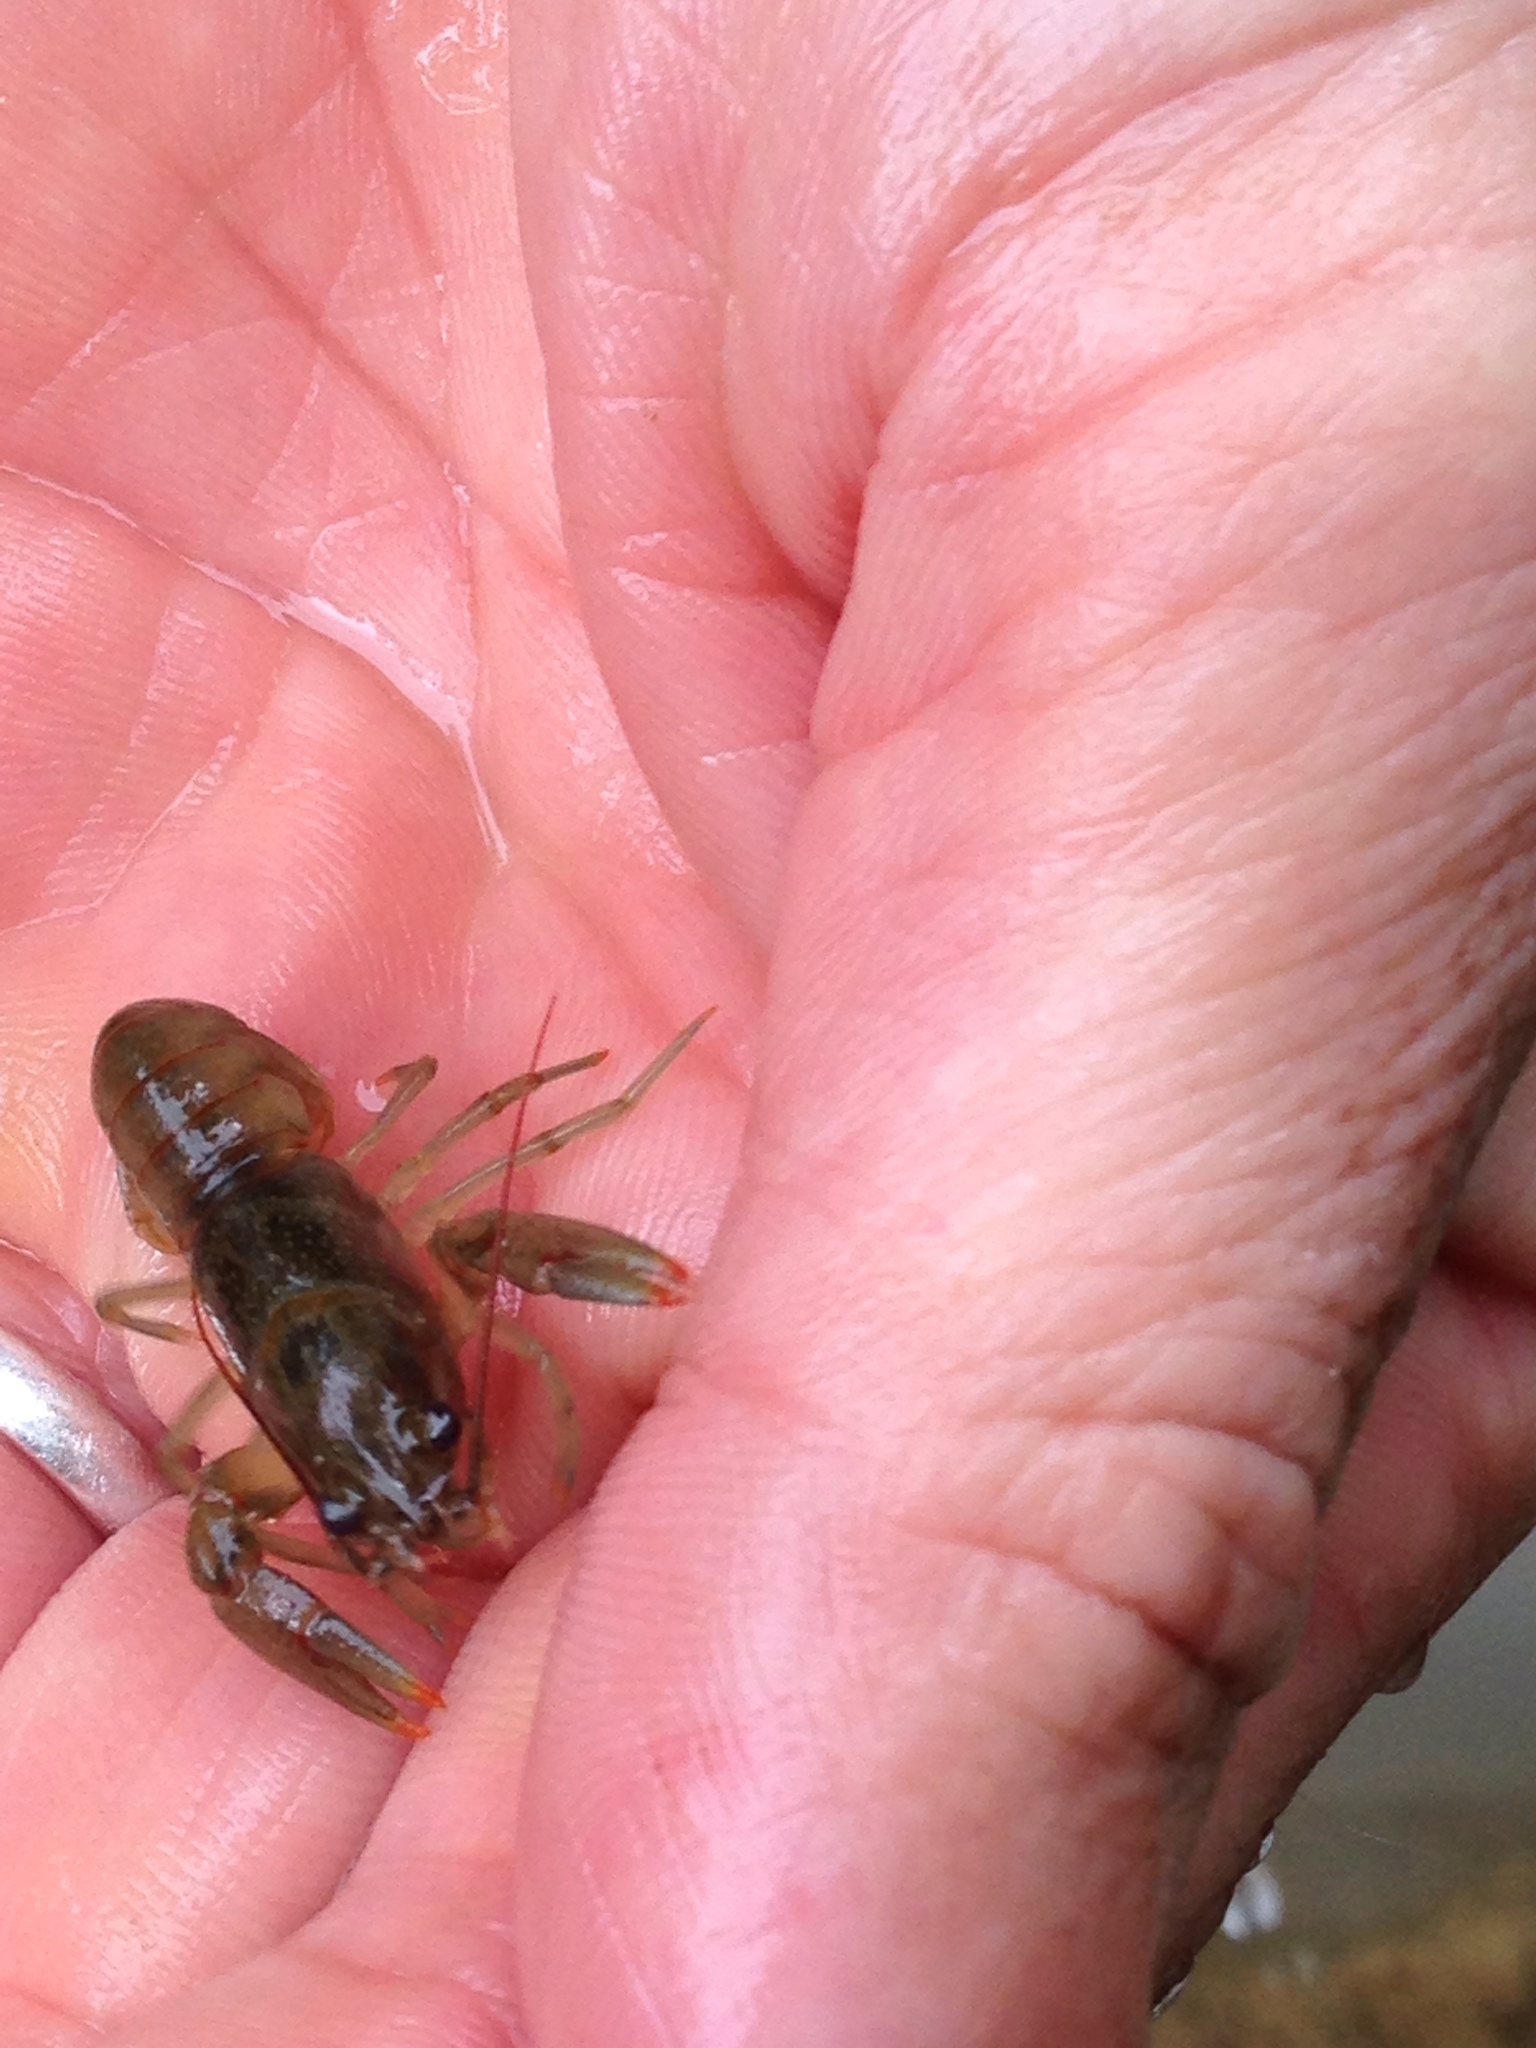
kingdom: Animalia
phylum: Arthropoda
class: Malacostraca
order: Decapoda
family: Cambaridae
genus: Faxonius
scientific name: Faxonius rusticus
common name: Rusty crayfish
